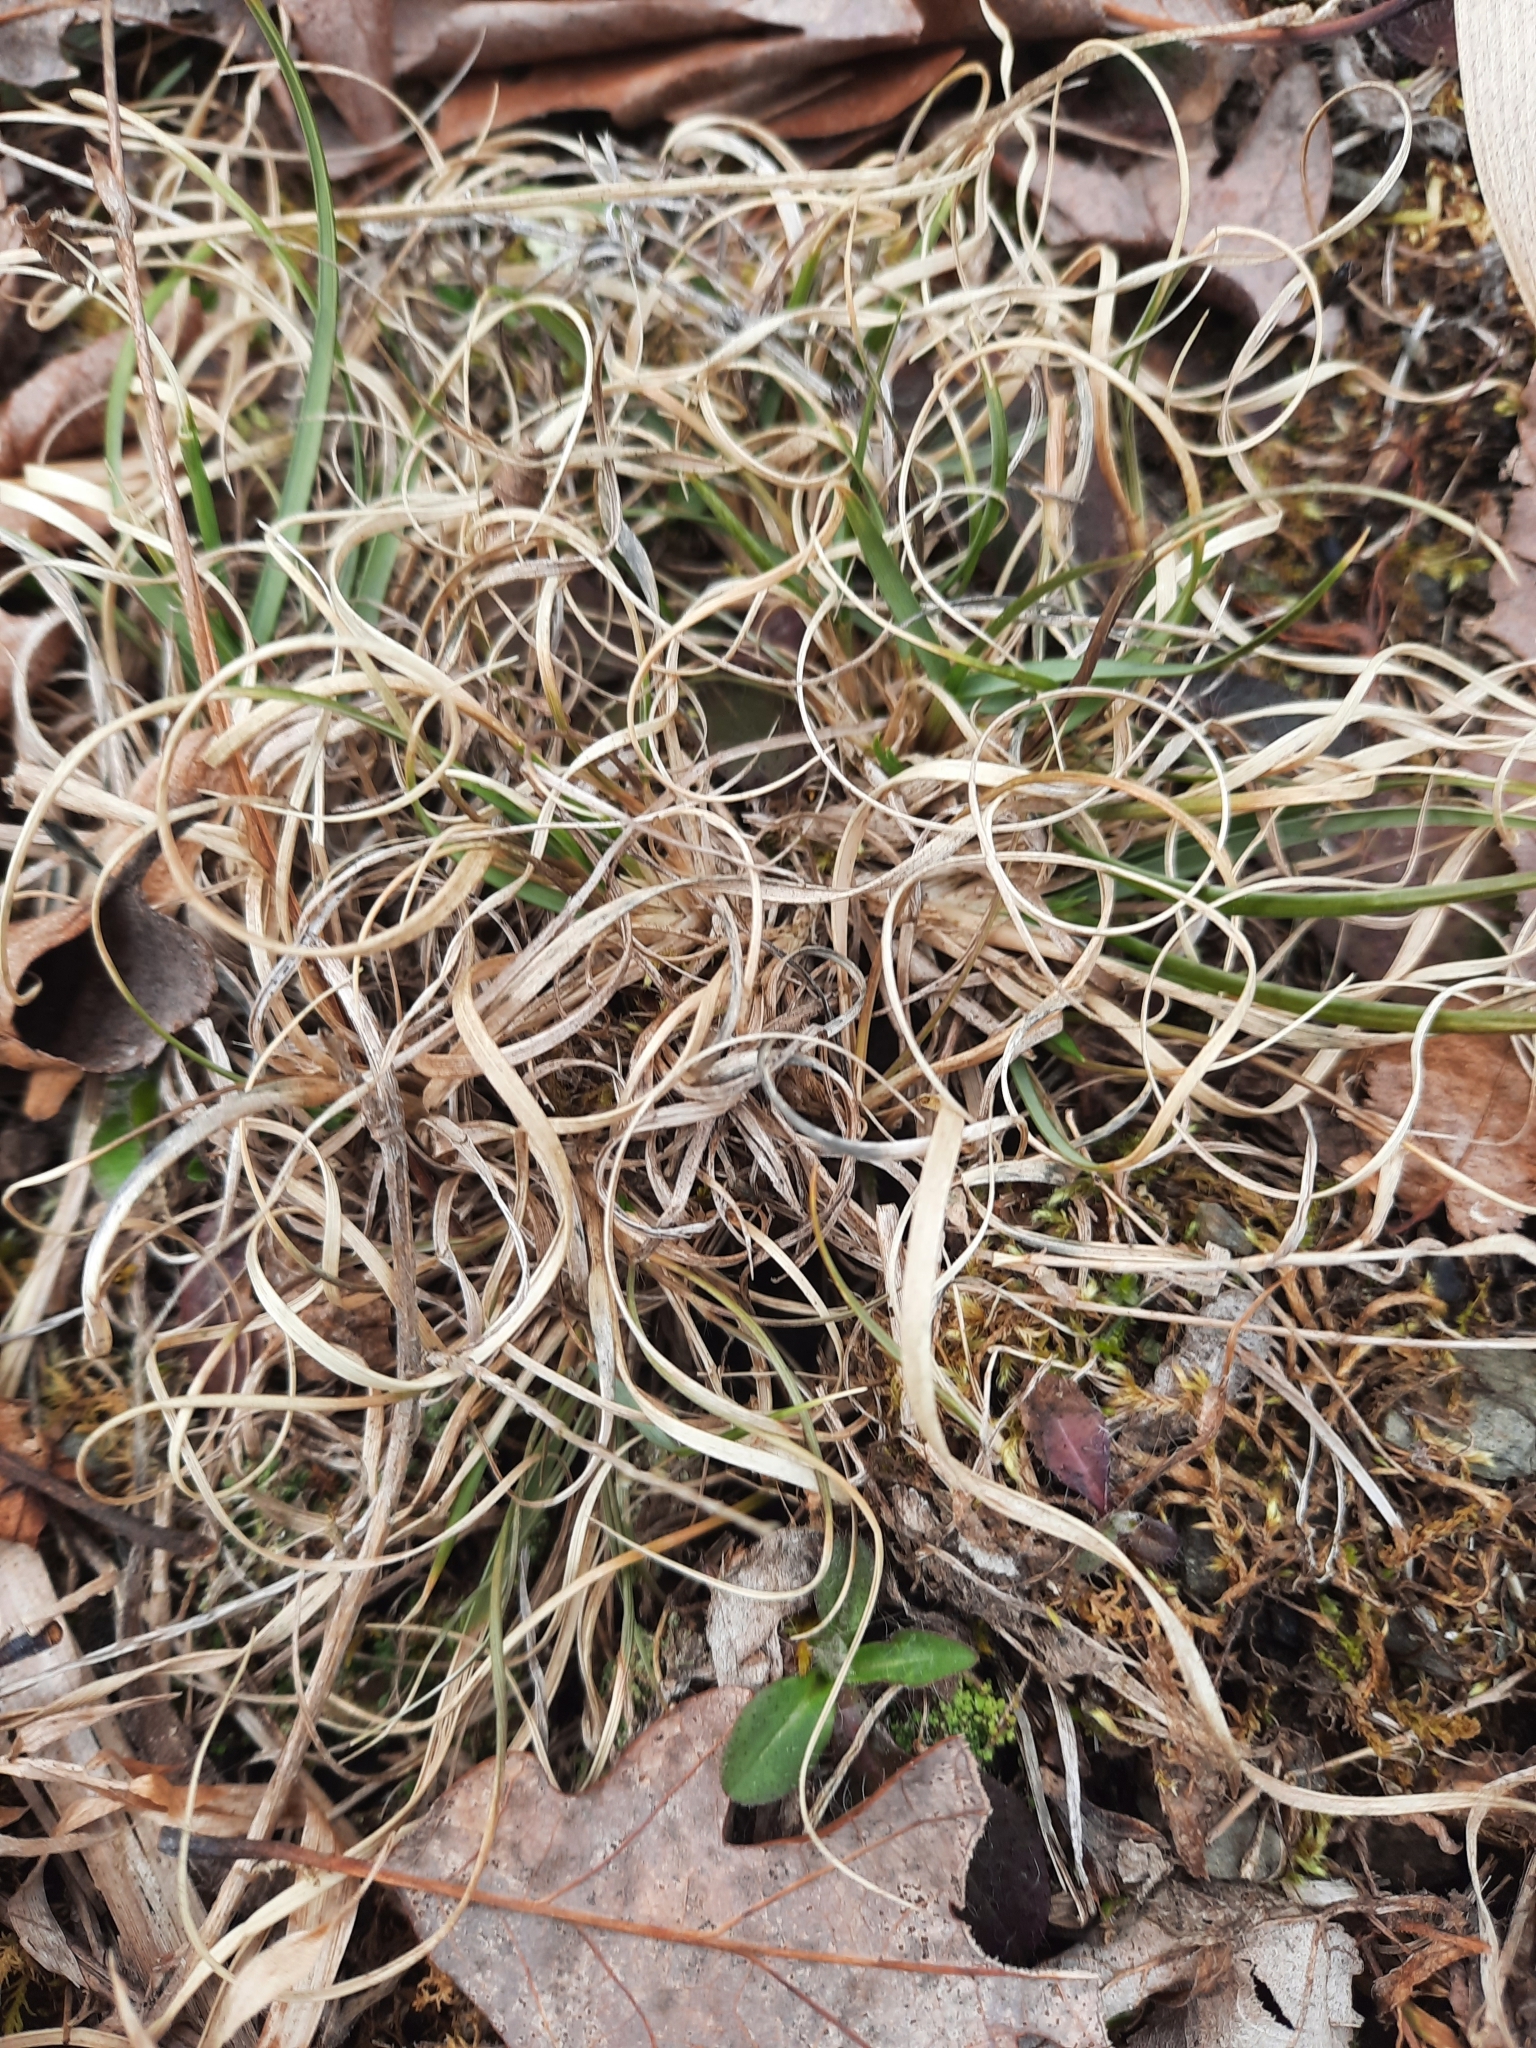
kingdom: Plantae
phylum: Tracheophyta
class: Liliopsida
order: Poales
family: Poaceae
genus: Danthonia
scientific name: Danthonia spicata
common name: Common wild oatgrass
